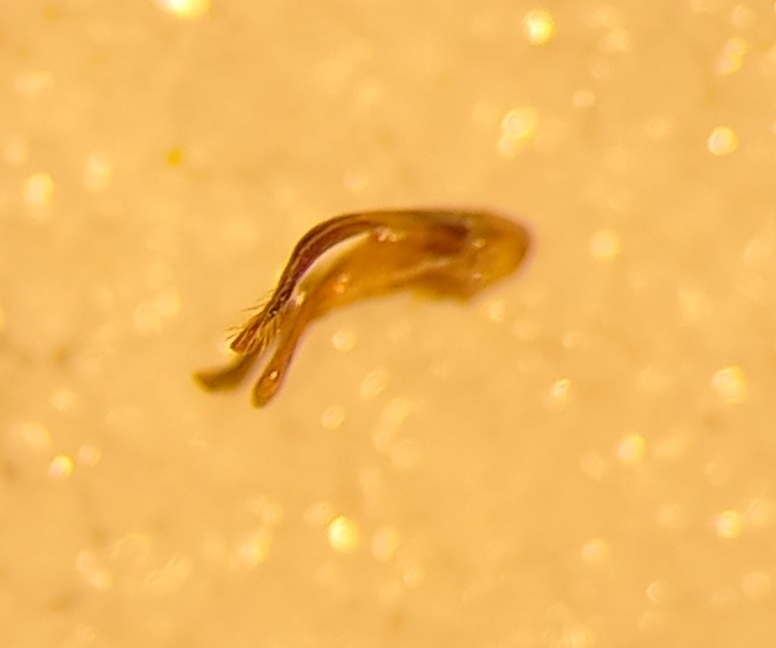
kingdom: Animalia
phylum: Arthropoda
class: Insecta
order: Hymenoptera
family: Megachilidae
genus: Osmia
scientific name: Osmia aurulenta
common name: Gold-fringed mason bee
